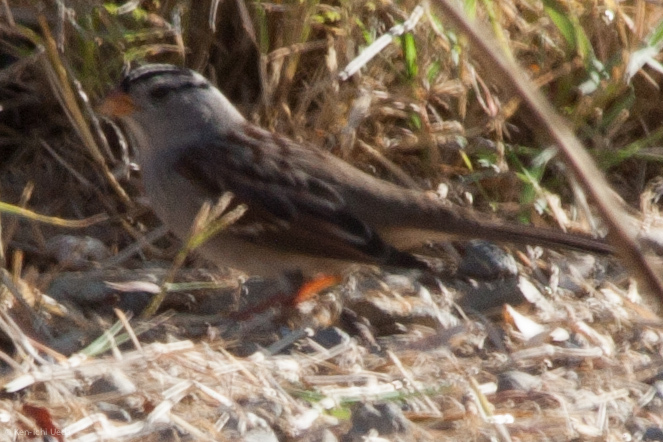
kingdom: Animalia
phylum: Chordata
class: Aves
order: Passeriformes
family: Passerellidae
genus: Zonotrichia
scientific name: Zonotrichia leucophrys
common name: White-crowned sparrow
